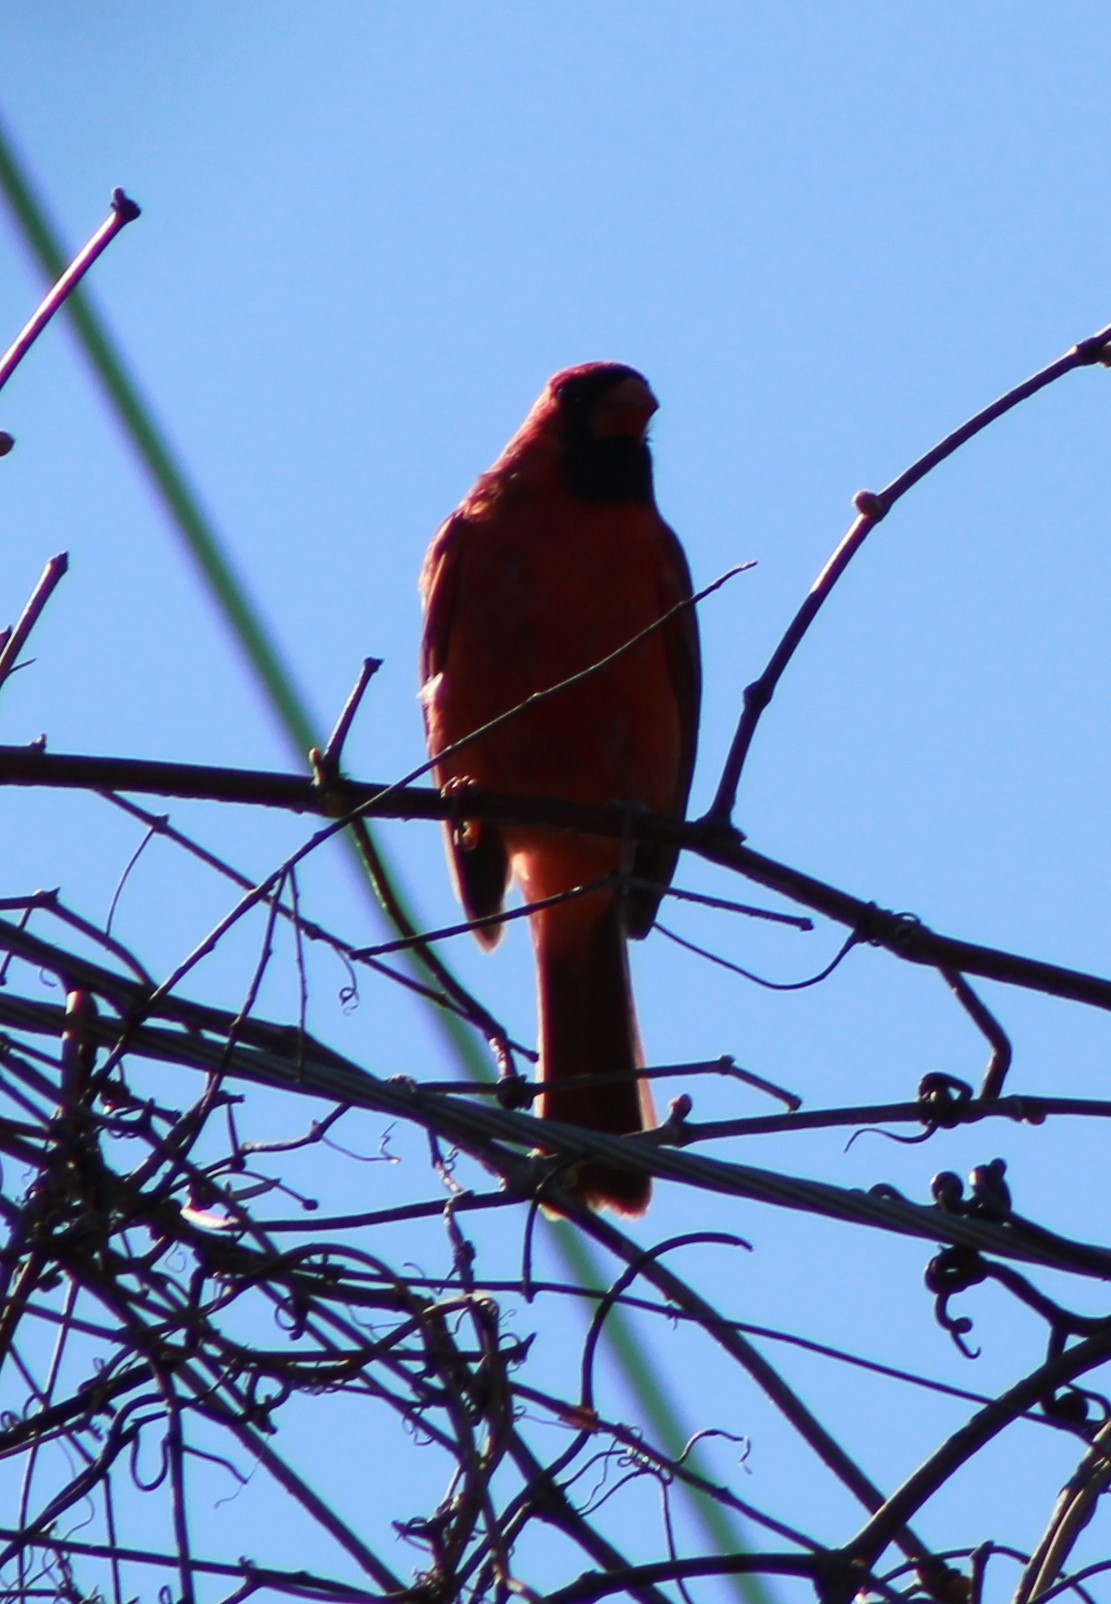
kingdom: Animalia
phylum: Chordata
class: Aves
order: Passeriformes
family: Cardinalidae
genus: Cardinalis
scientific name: Cardinalis cardinalis
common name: Northern cardinal
